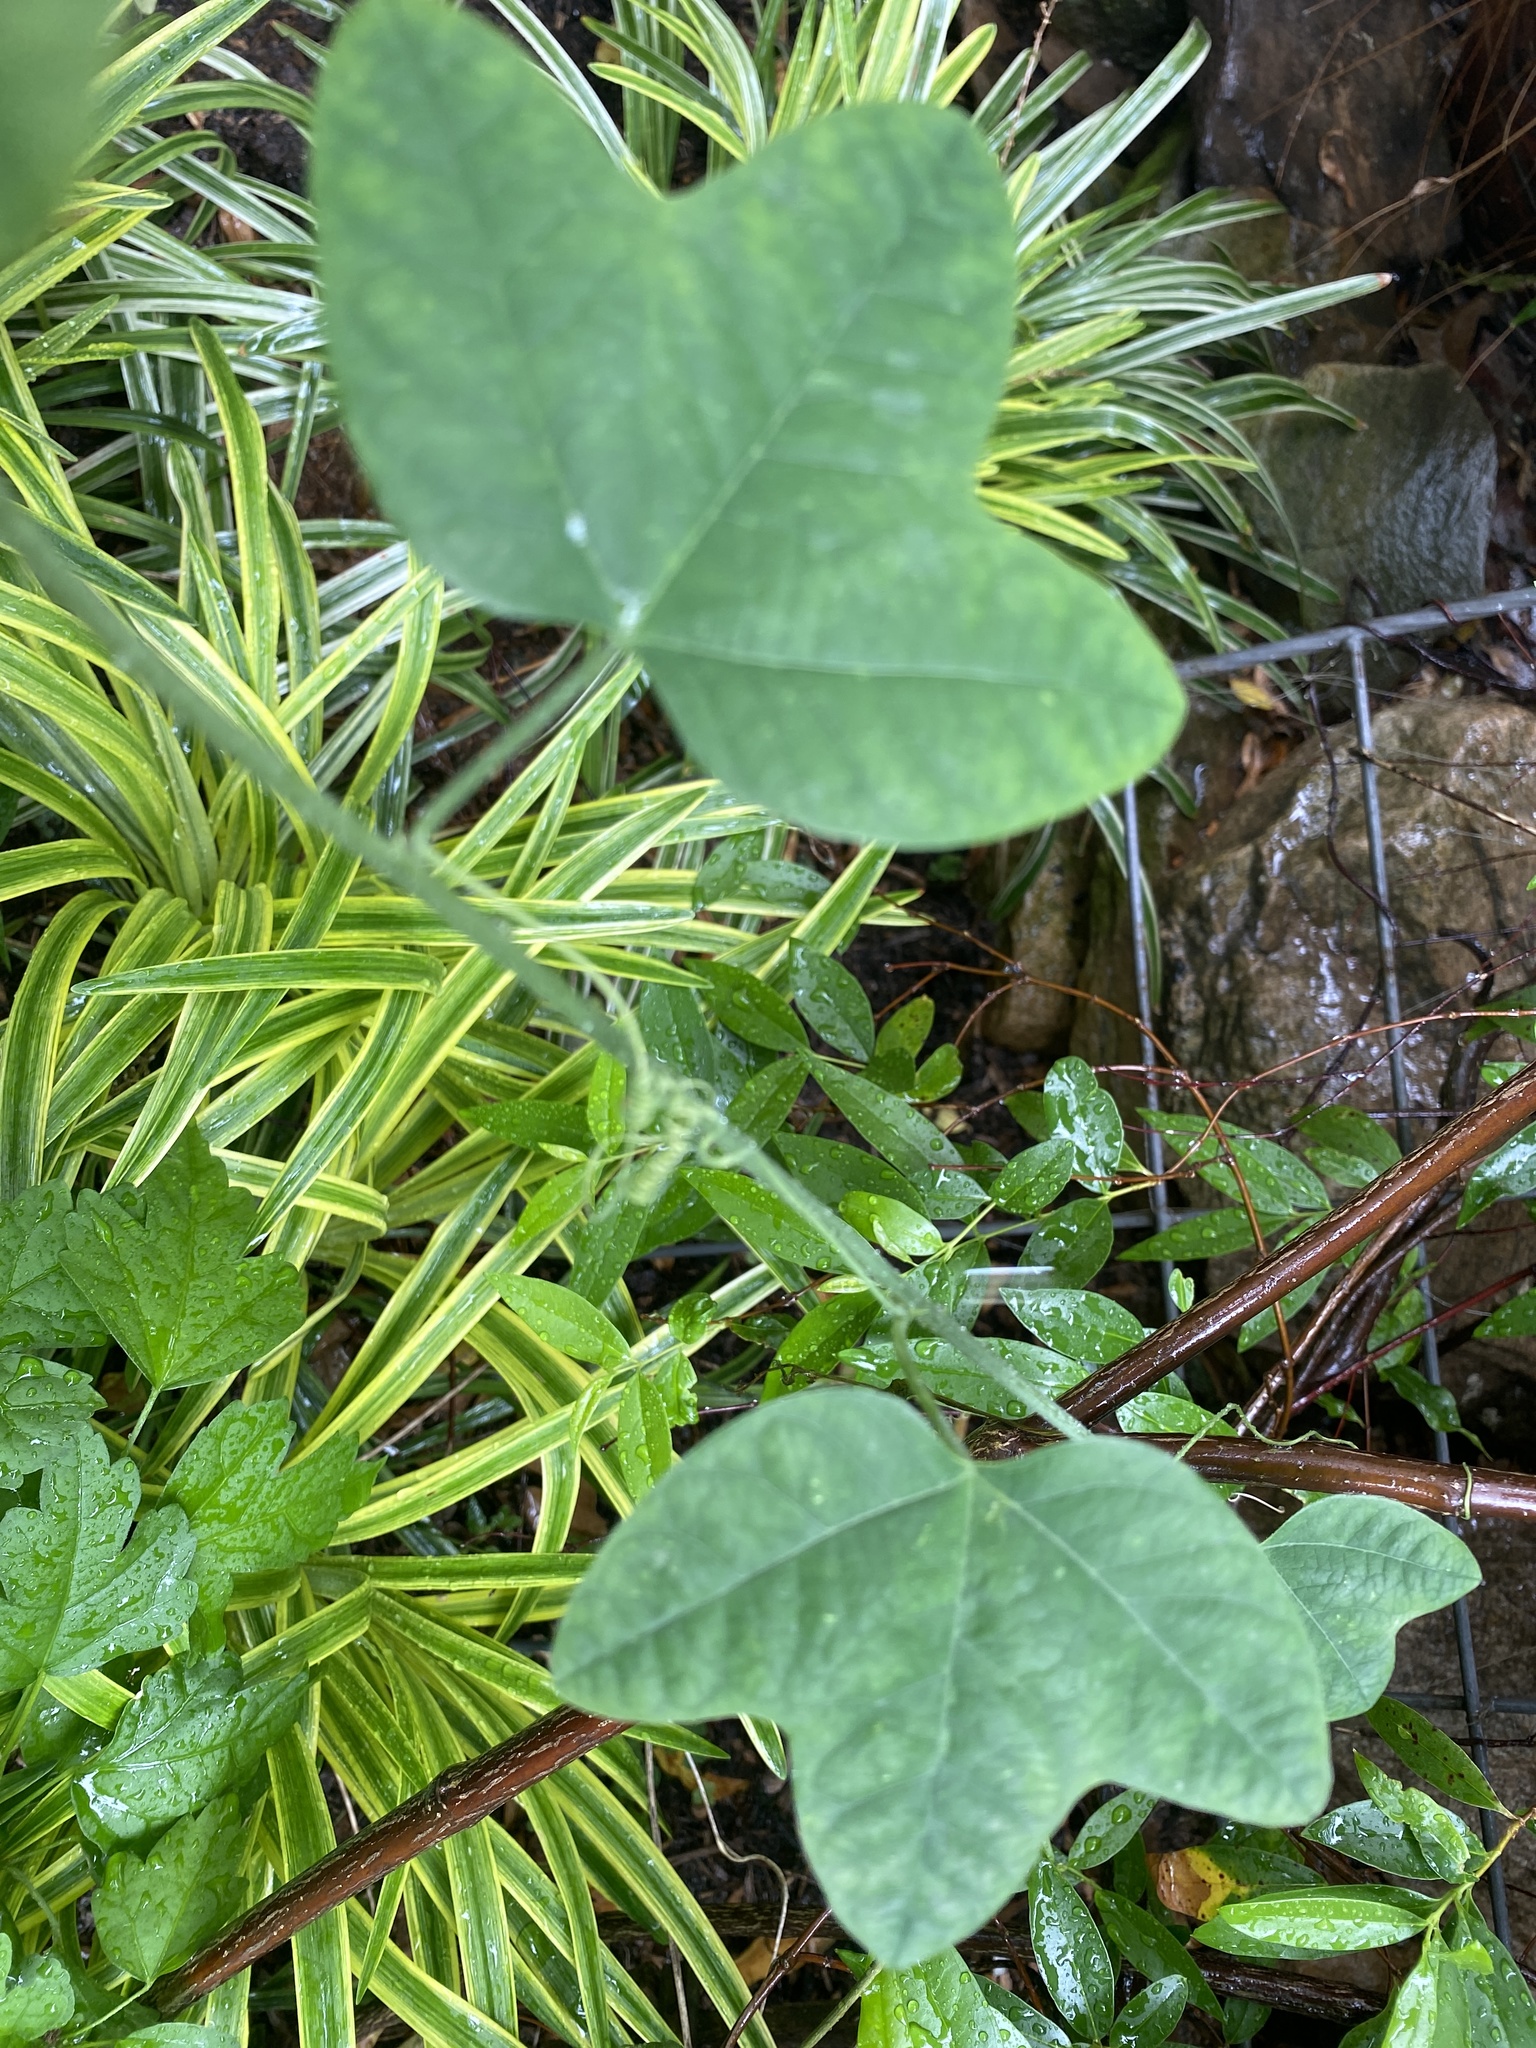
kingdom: Plantae
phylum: Tracheophyta
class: Magnoliopsida
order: Malpighiales
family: Passifloraceae
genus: Passiflora
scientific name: Passiflora lutea
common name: Yellow passionflower
